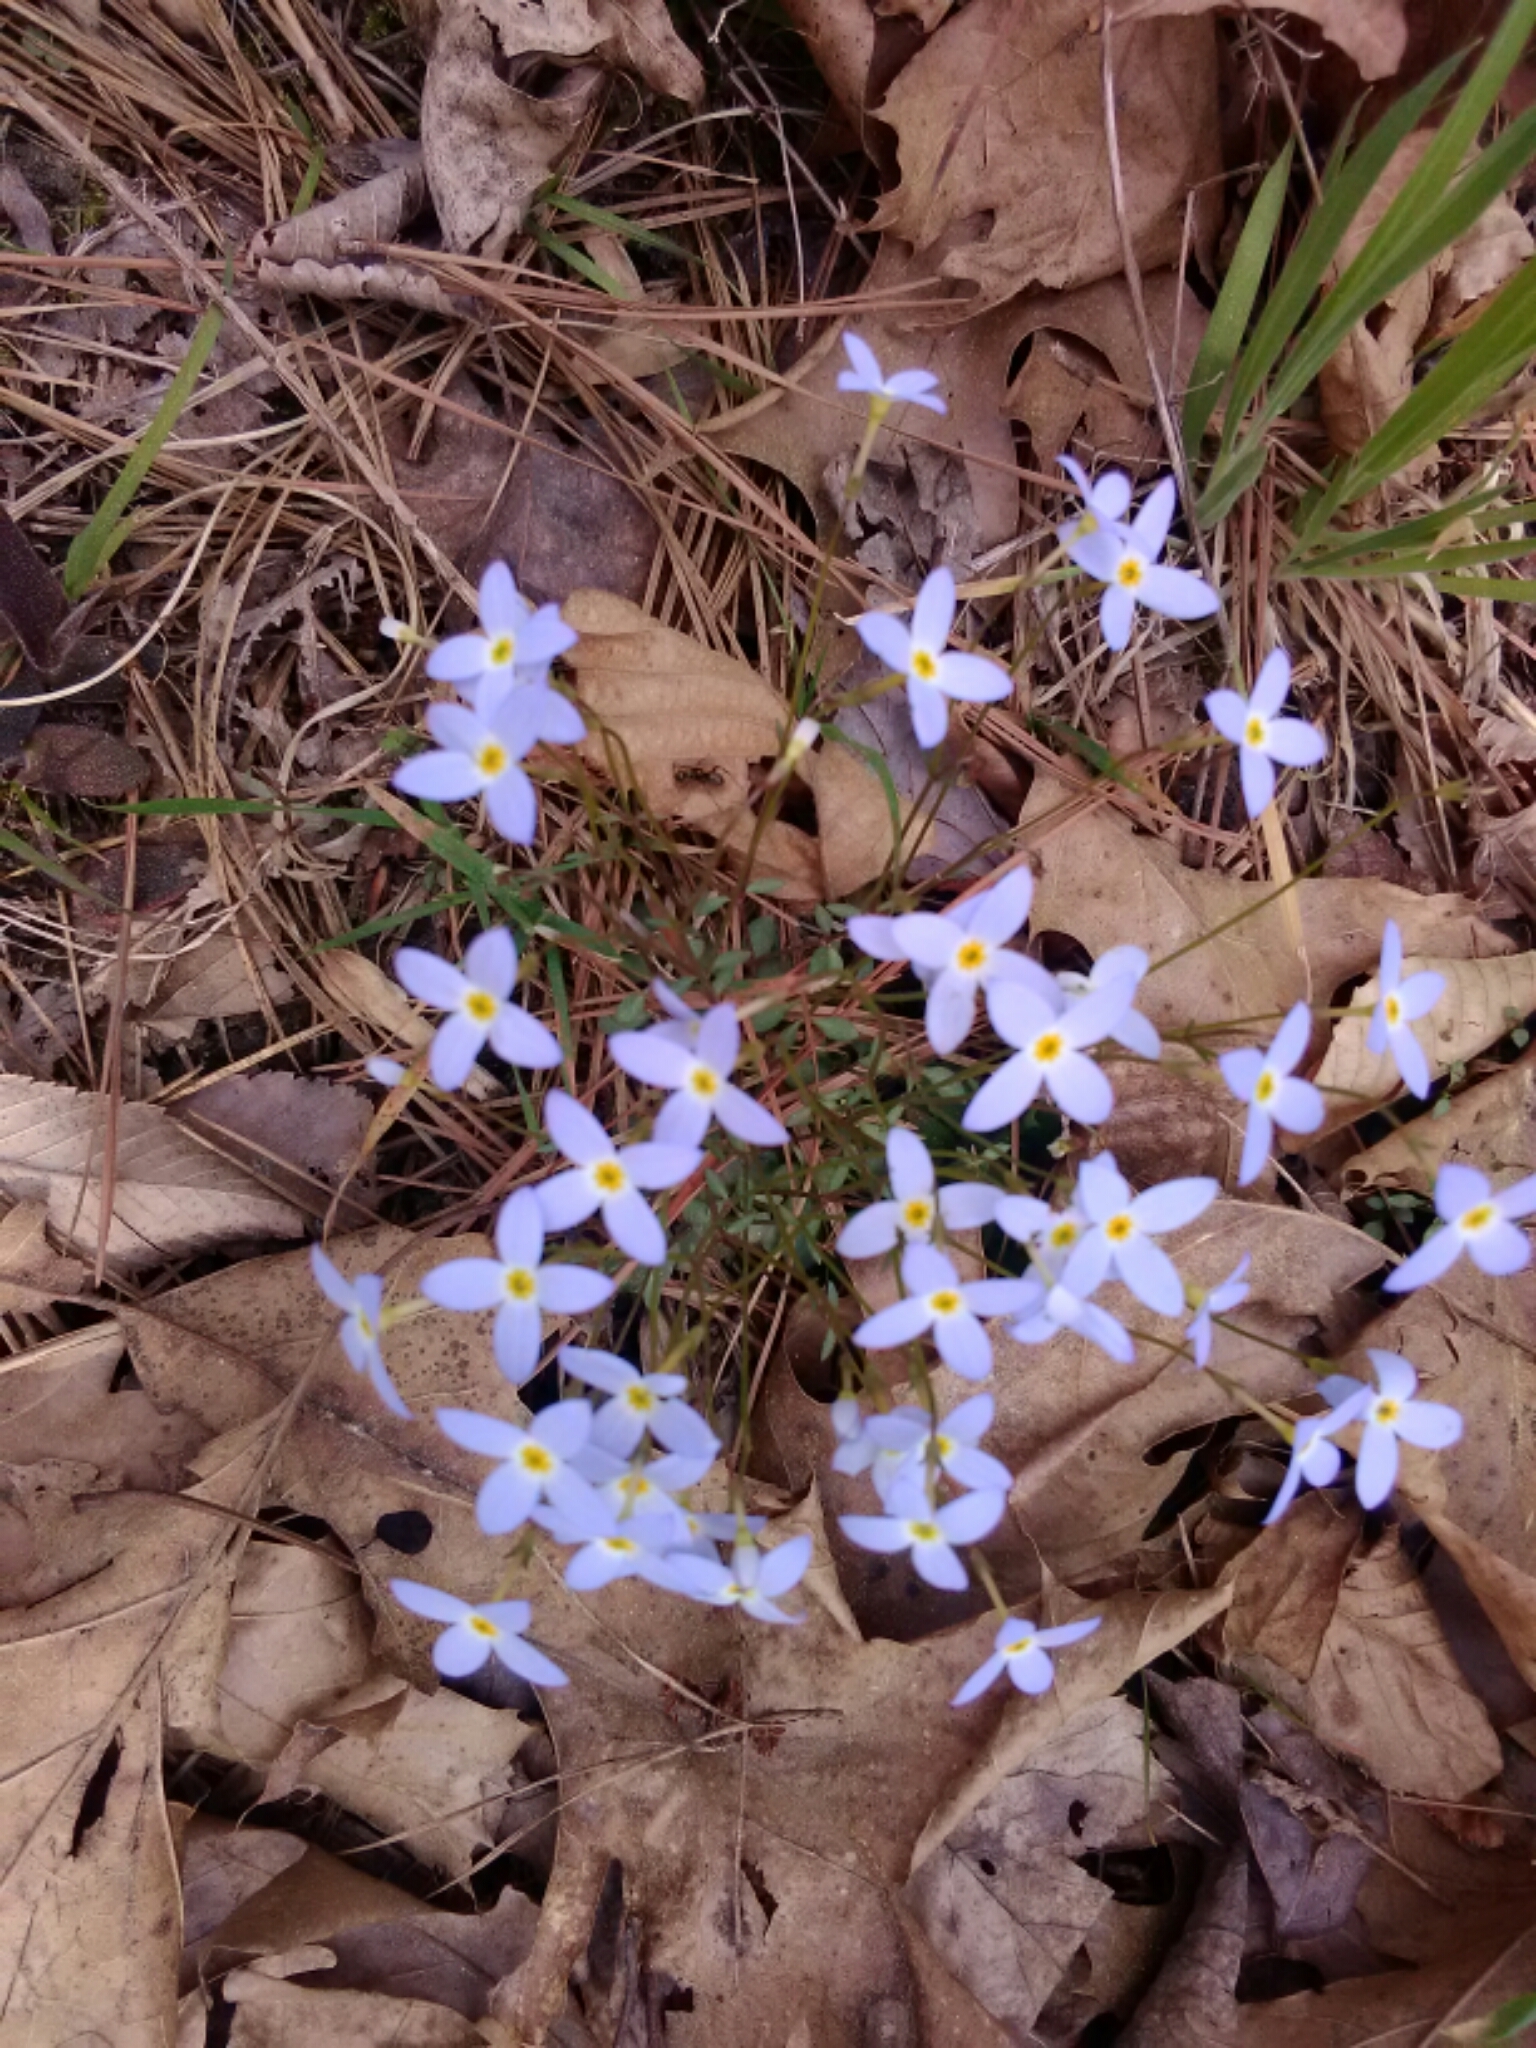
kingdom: Plantae
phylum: Tracheophyta
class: Magnoliopsida
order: Gentianales
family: Rubiaceae
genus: Houstonia
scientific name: Houstonia caerulea
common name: Bluets
